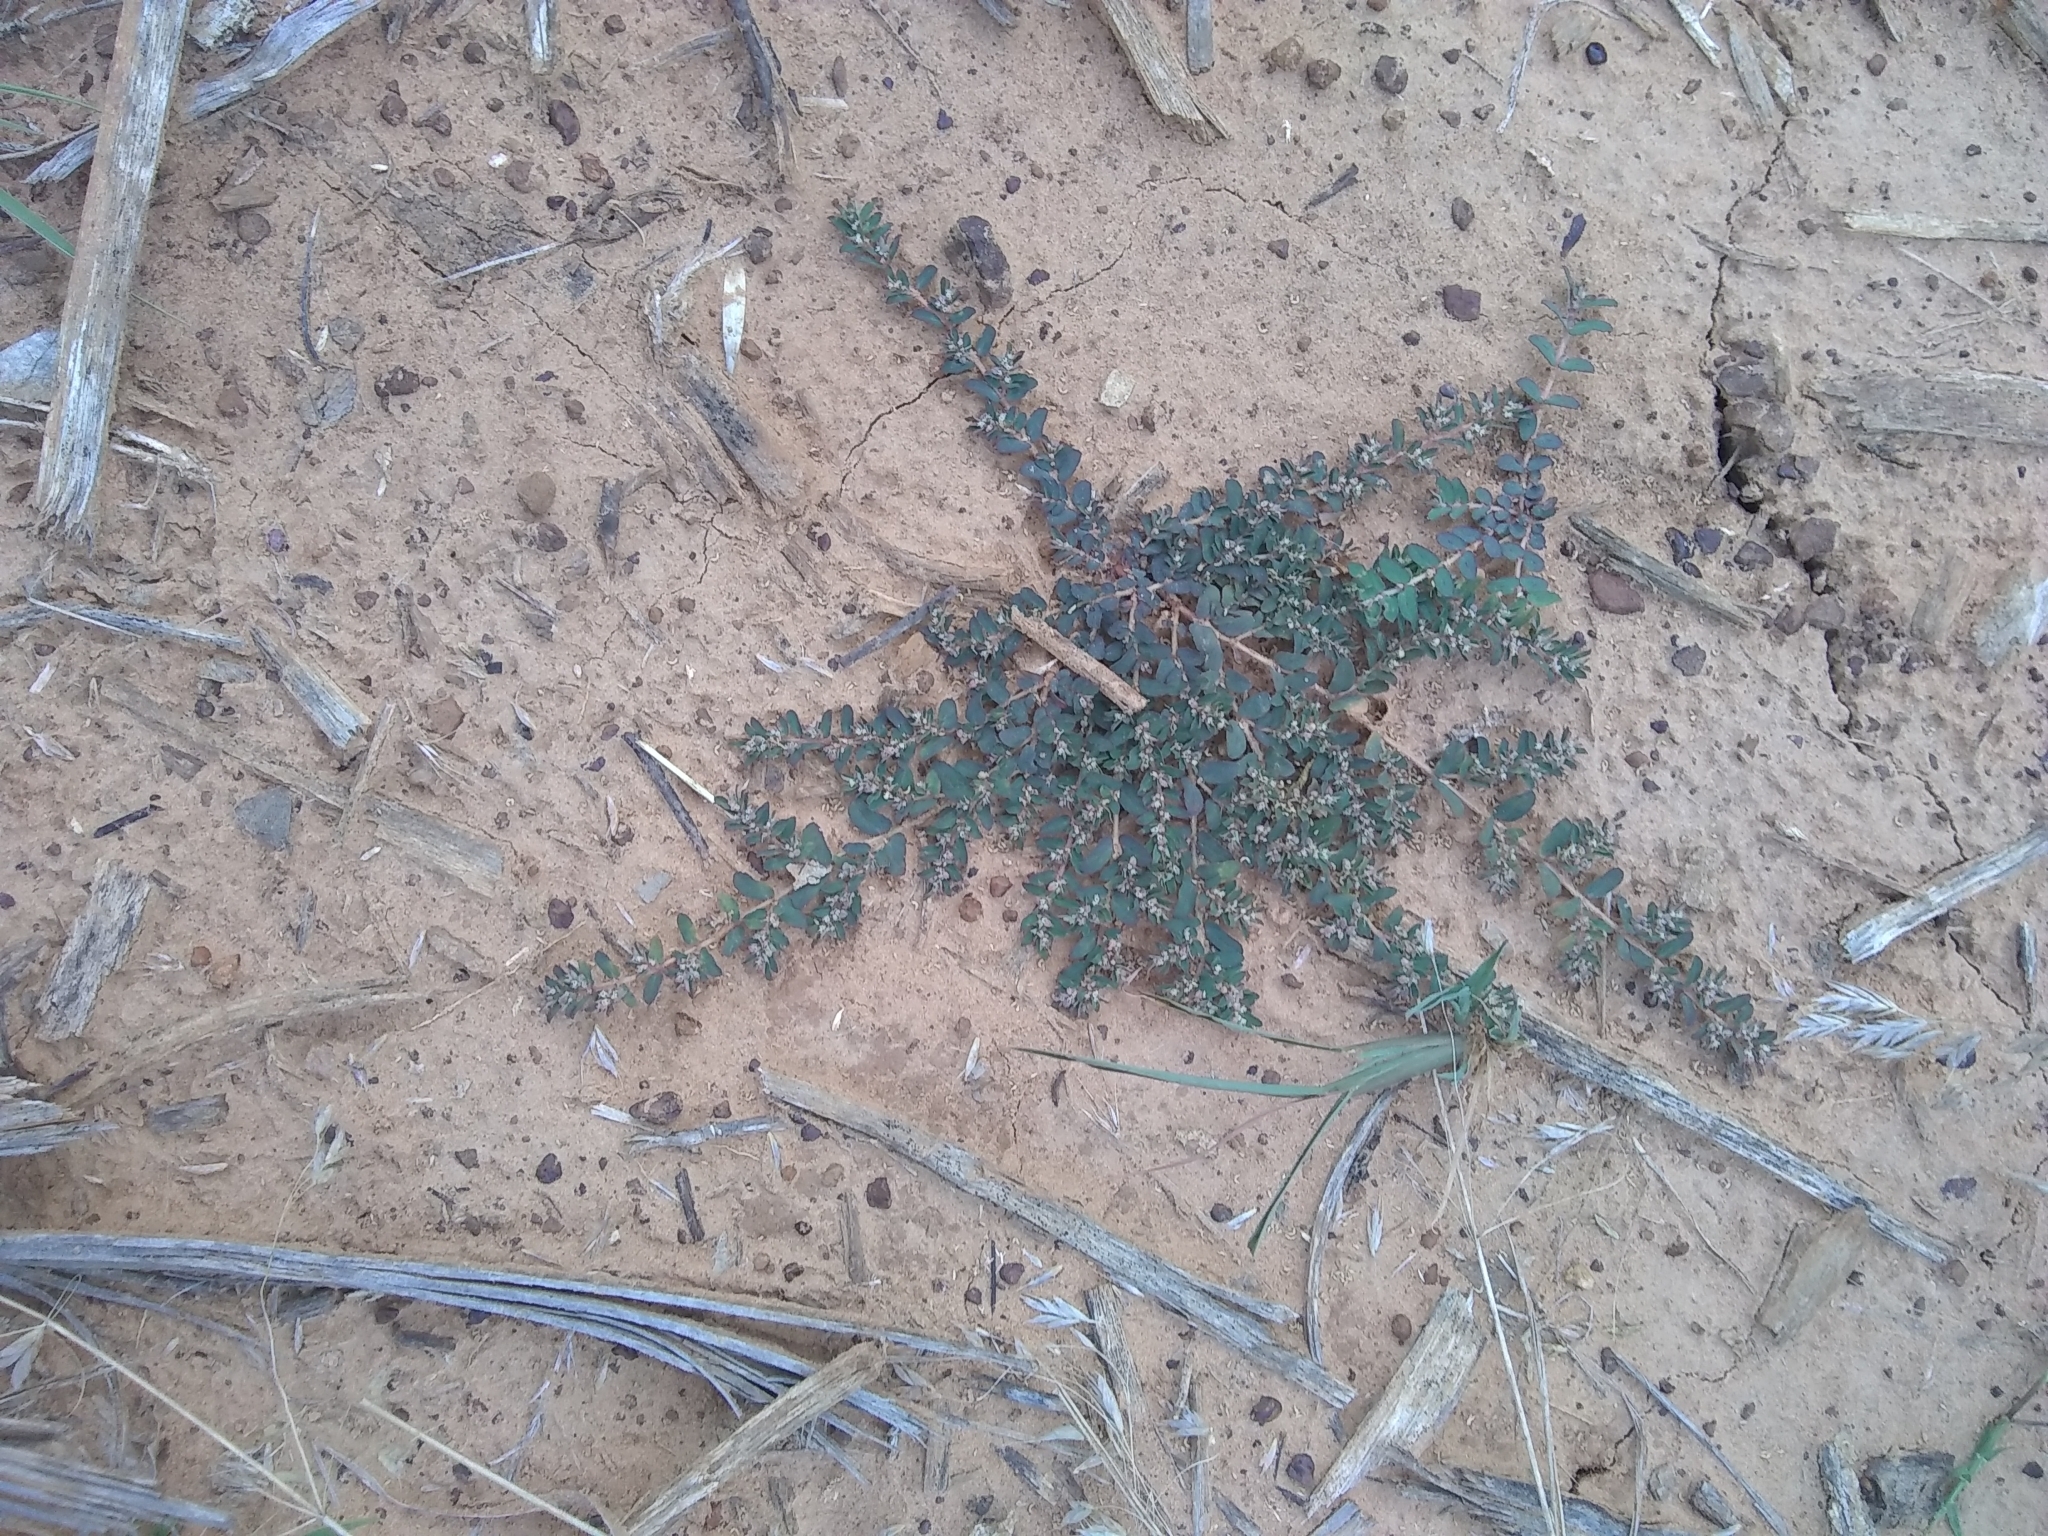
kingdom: Plantae
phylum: Tracheophyta
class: Magnoliopsida
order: Malpighiales
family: Euphorbiaceae
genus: Euphorbia
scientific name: Euphorbia maculata
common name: Spotted spurge
